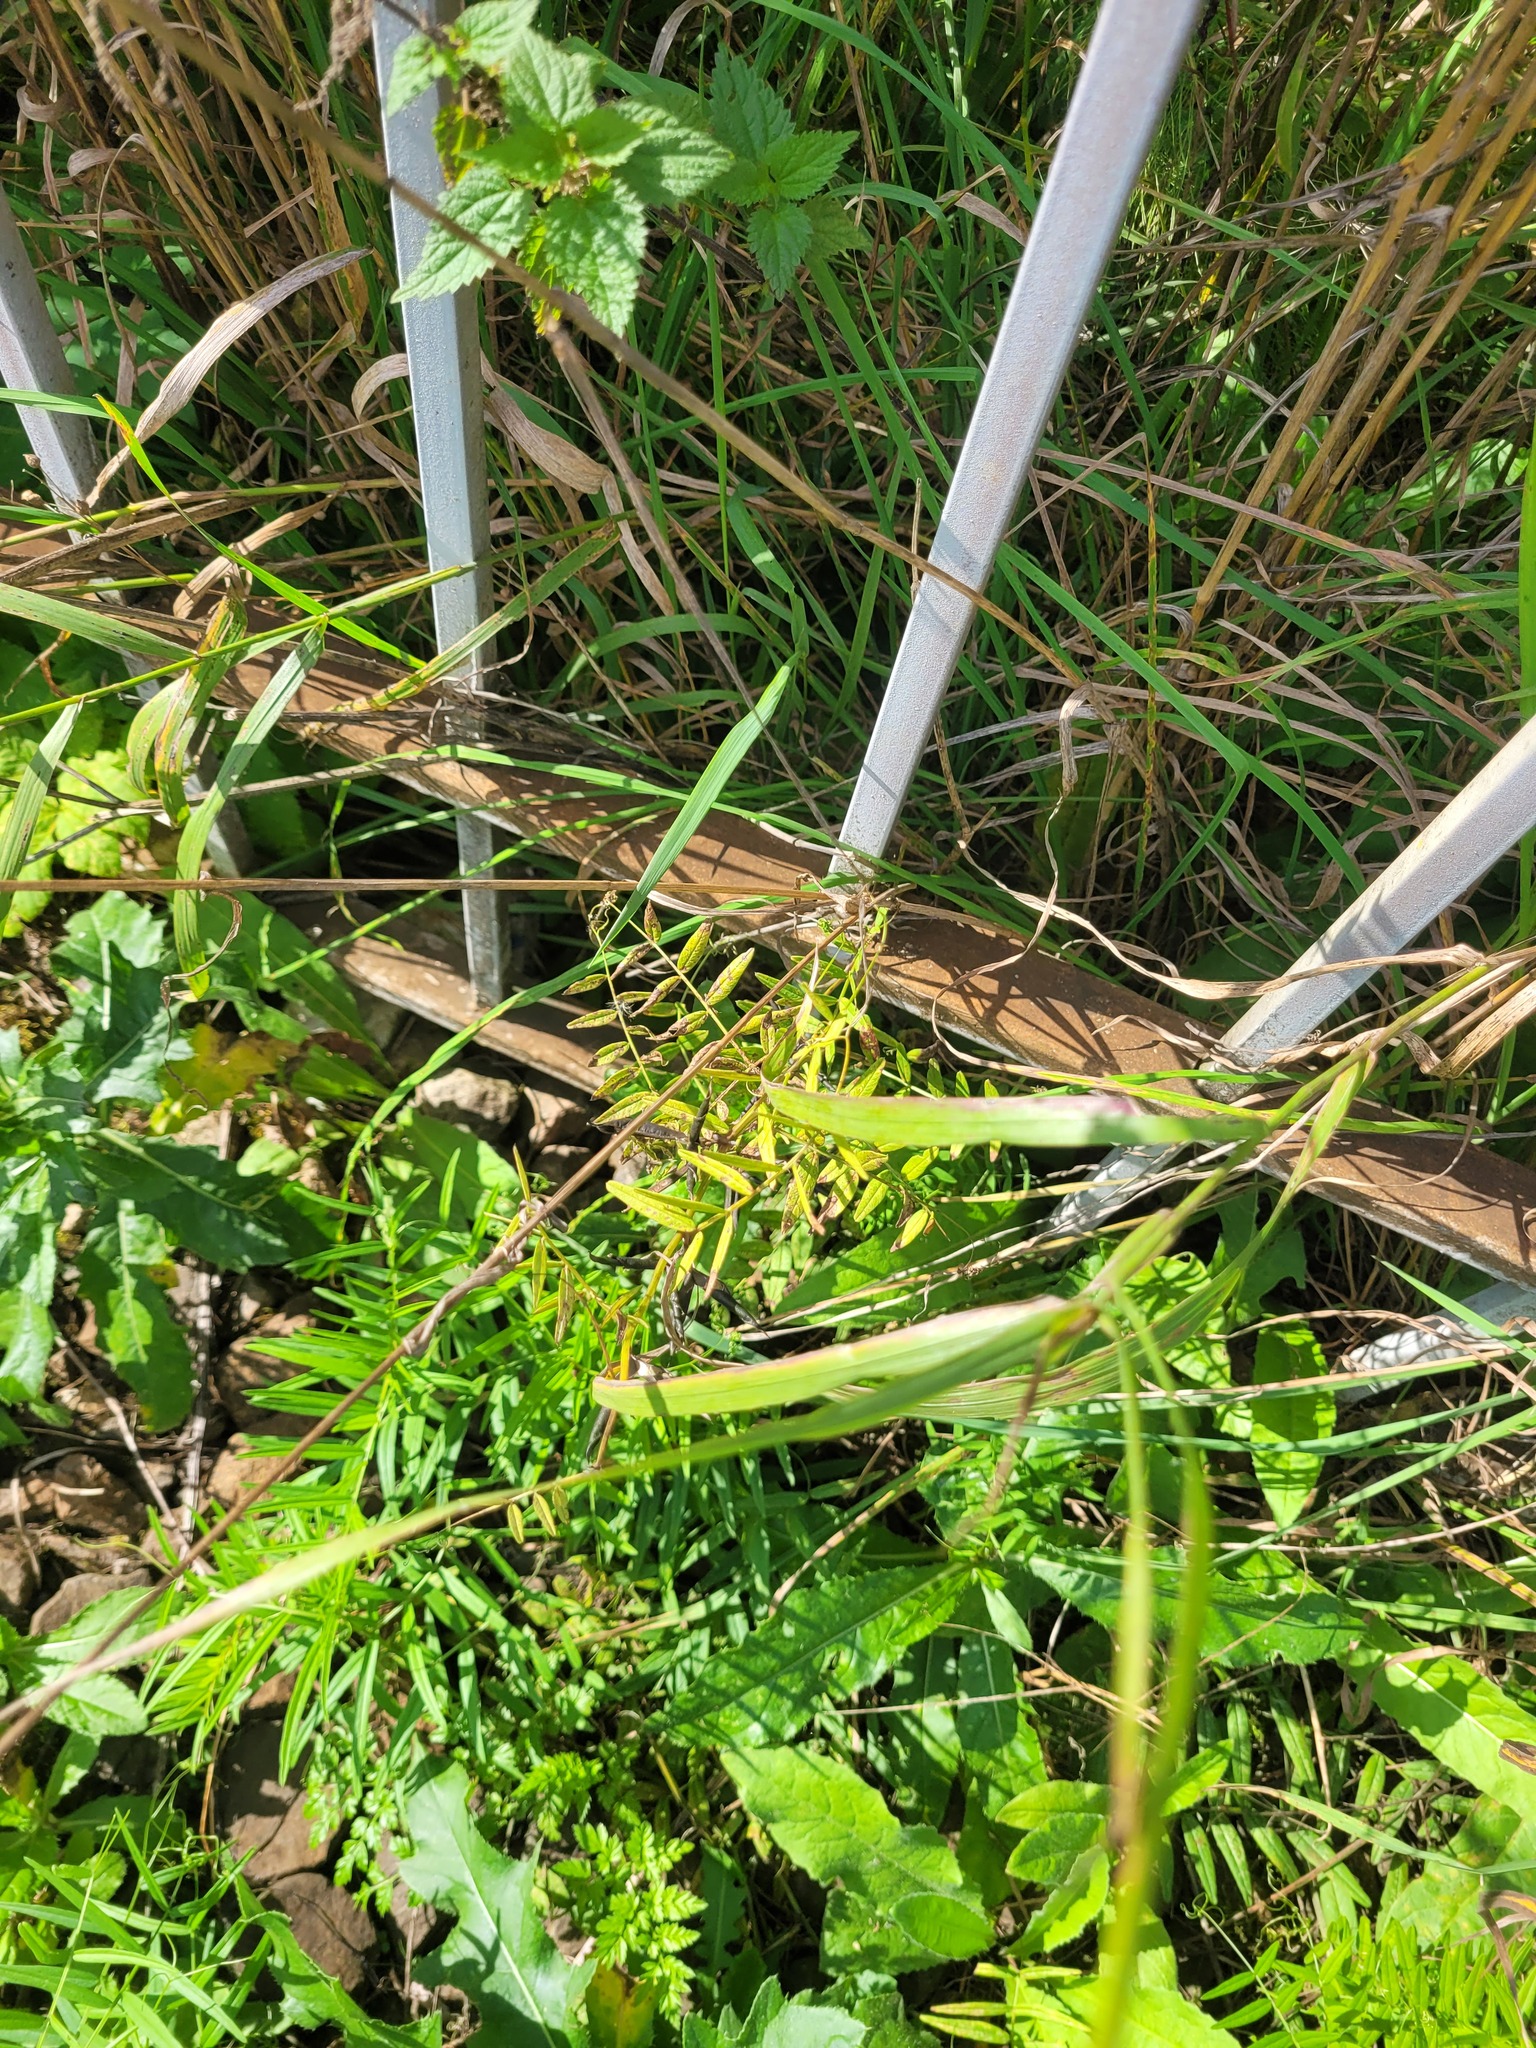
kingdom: Plantae
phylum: Tracheophyta
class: Magnoliopsida
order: Fabales
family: Fabaceae
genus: Vicia
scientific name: Vicia sepium
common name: Bush vetch
